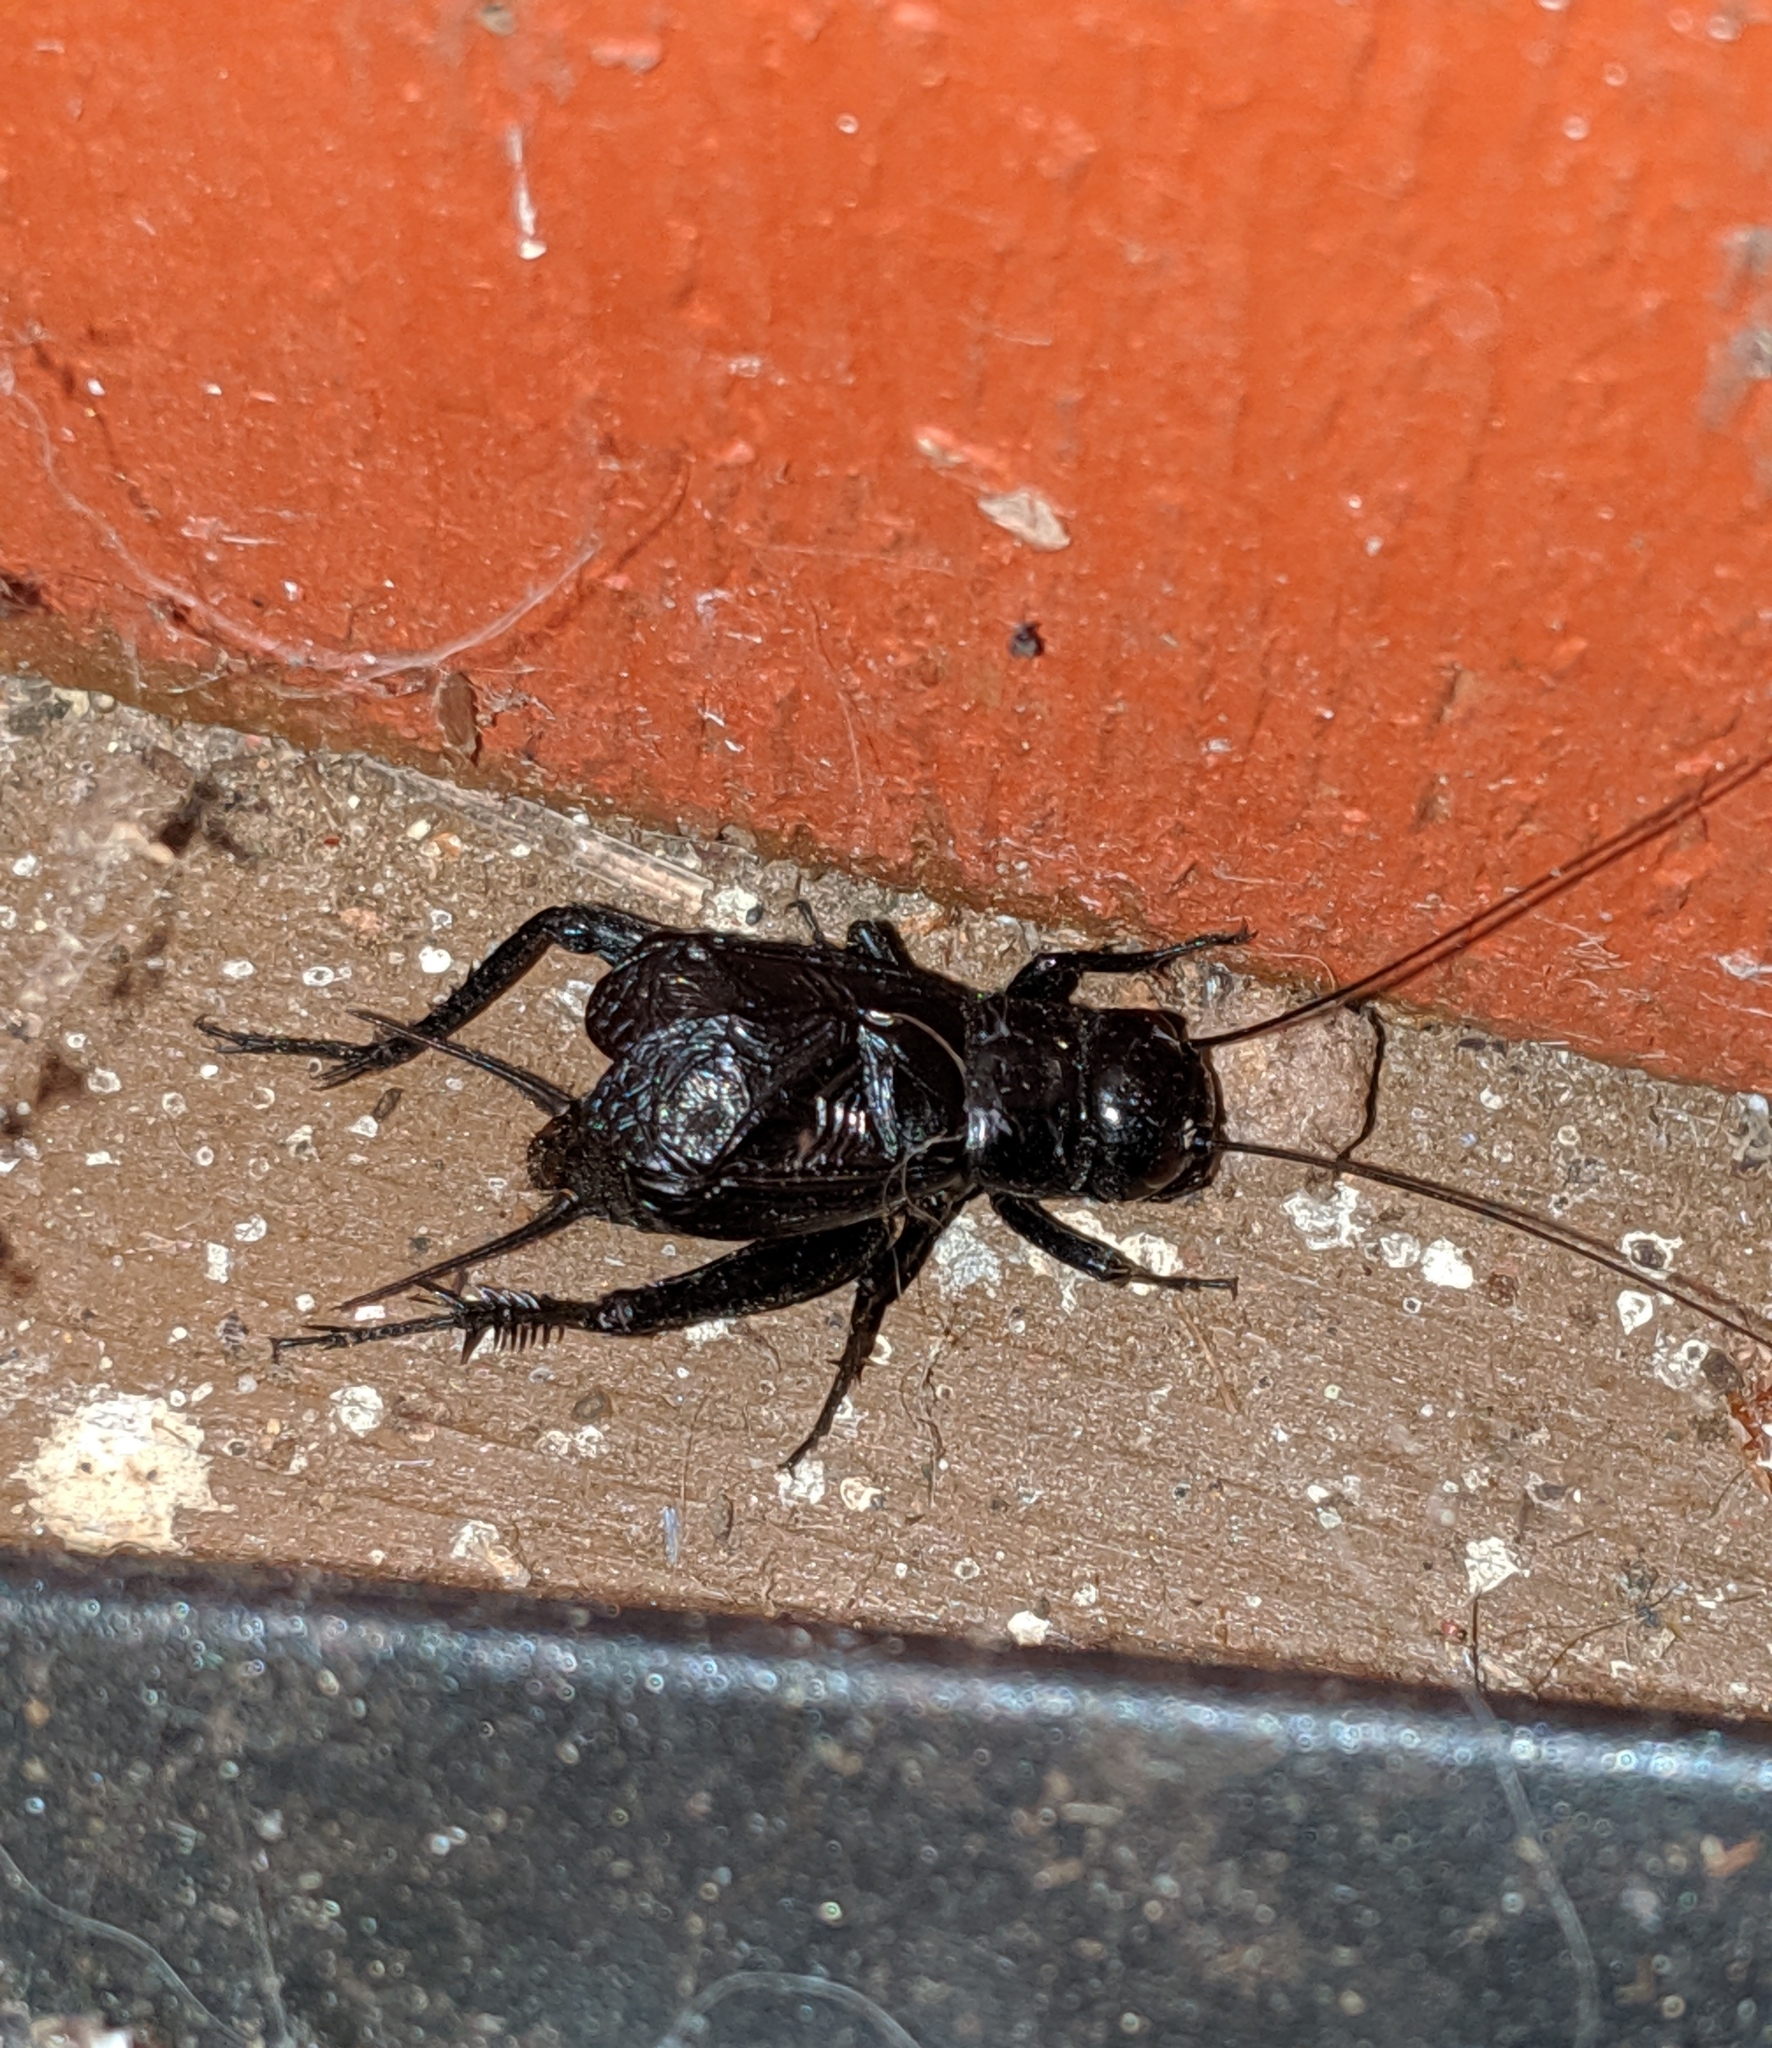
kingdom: Animalia
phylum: Arthropoda
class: Insecta
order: Orthoptera
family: Gryllidae
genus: Gryllus
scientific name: Gryllus pennsylvanicus
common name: Fall field cricket
